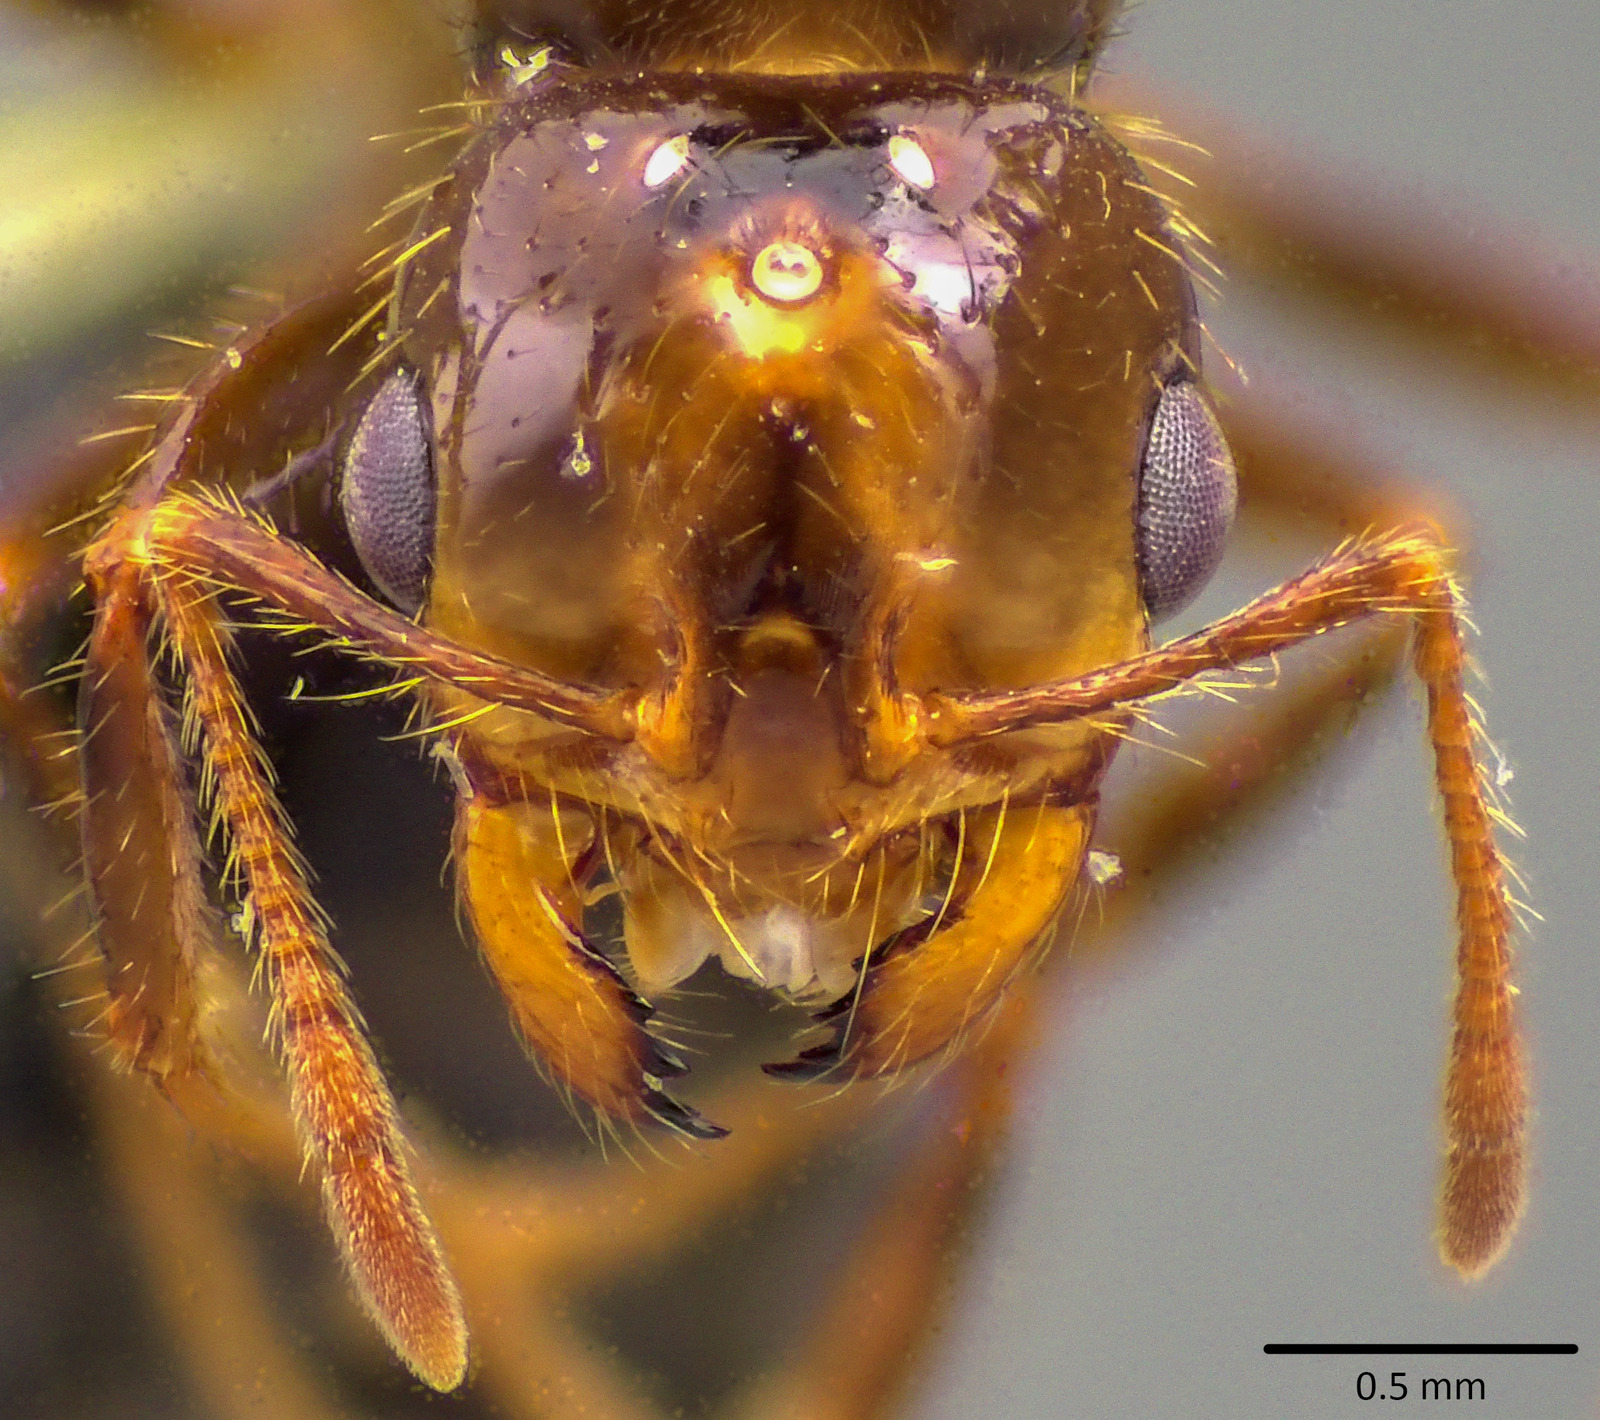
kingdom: Animalia
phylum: Arthropoda
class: Insecta
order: Hymenoptera
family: Formicidae
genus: Solenopsis
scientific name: Solenopsis invicta
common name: Red imported fire ant
